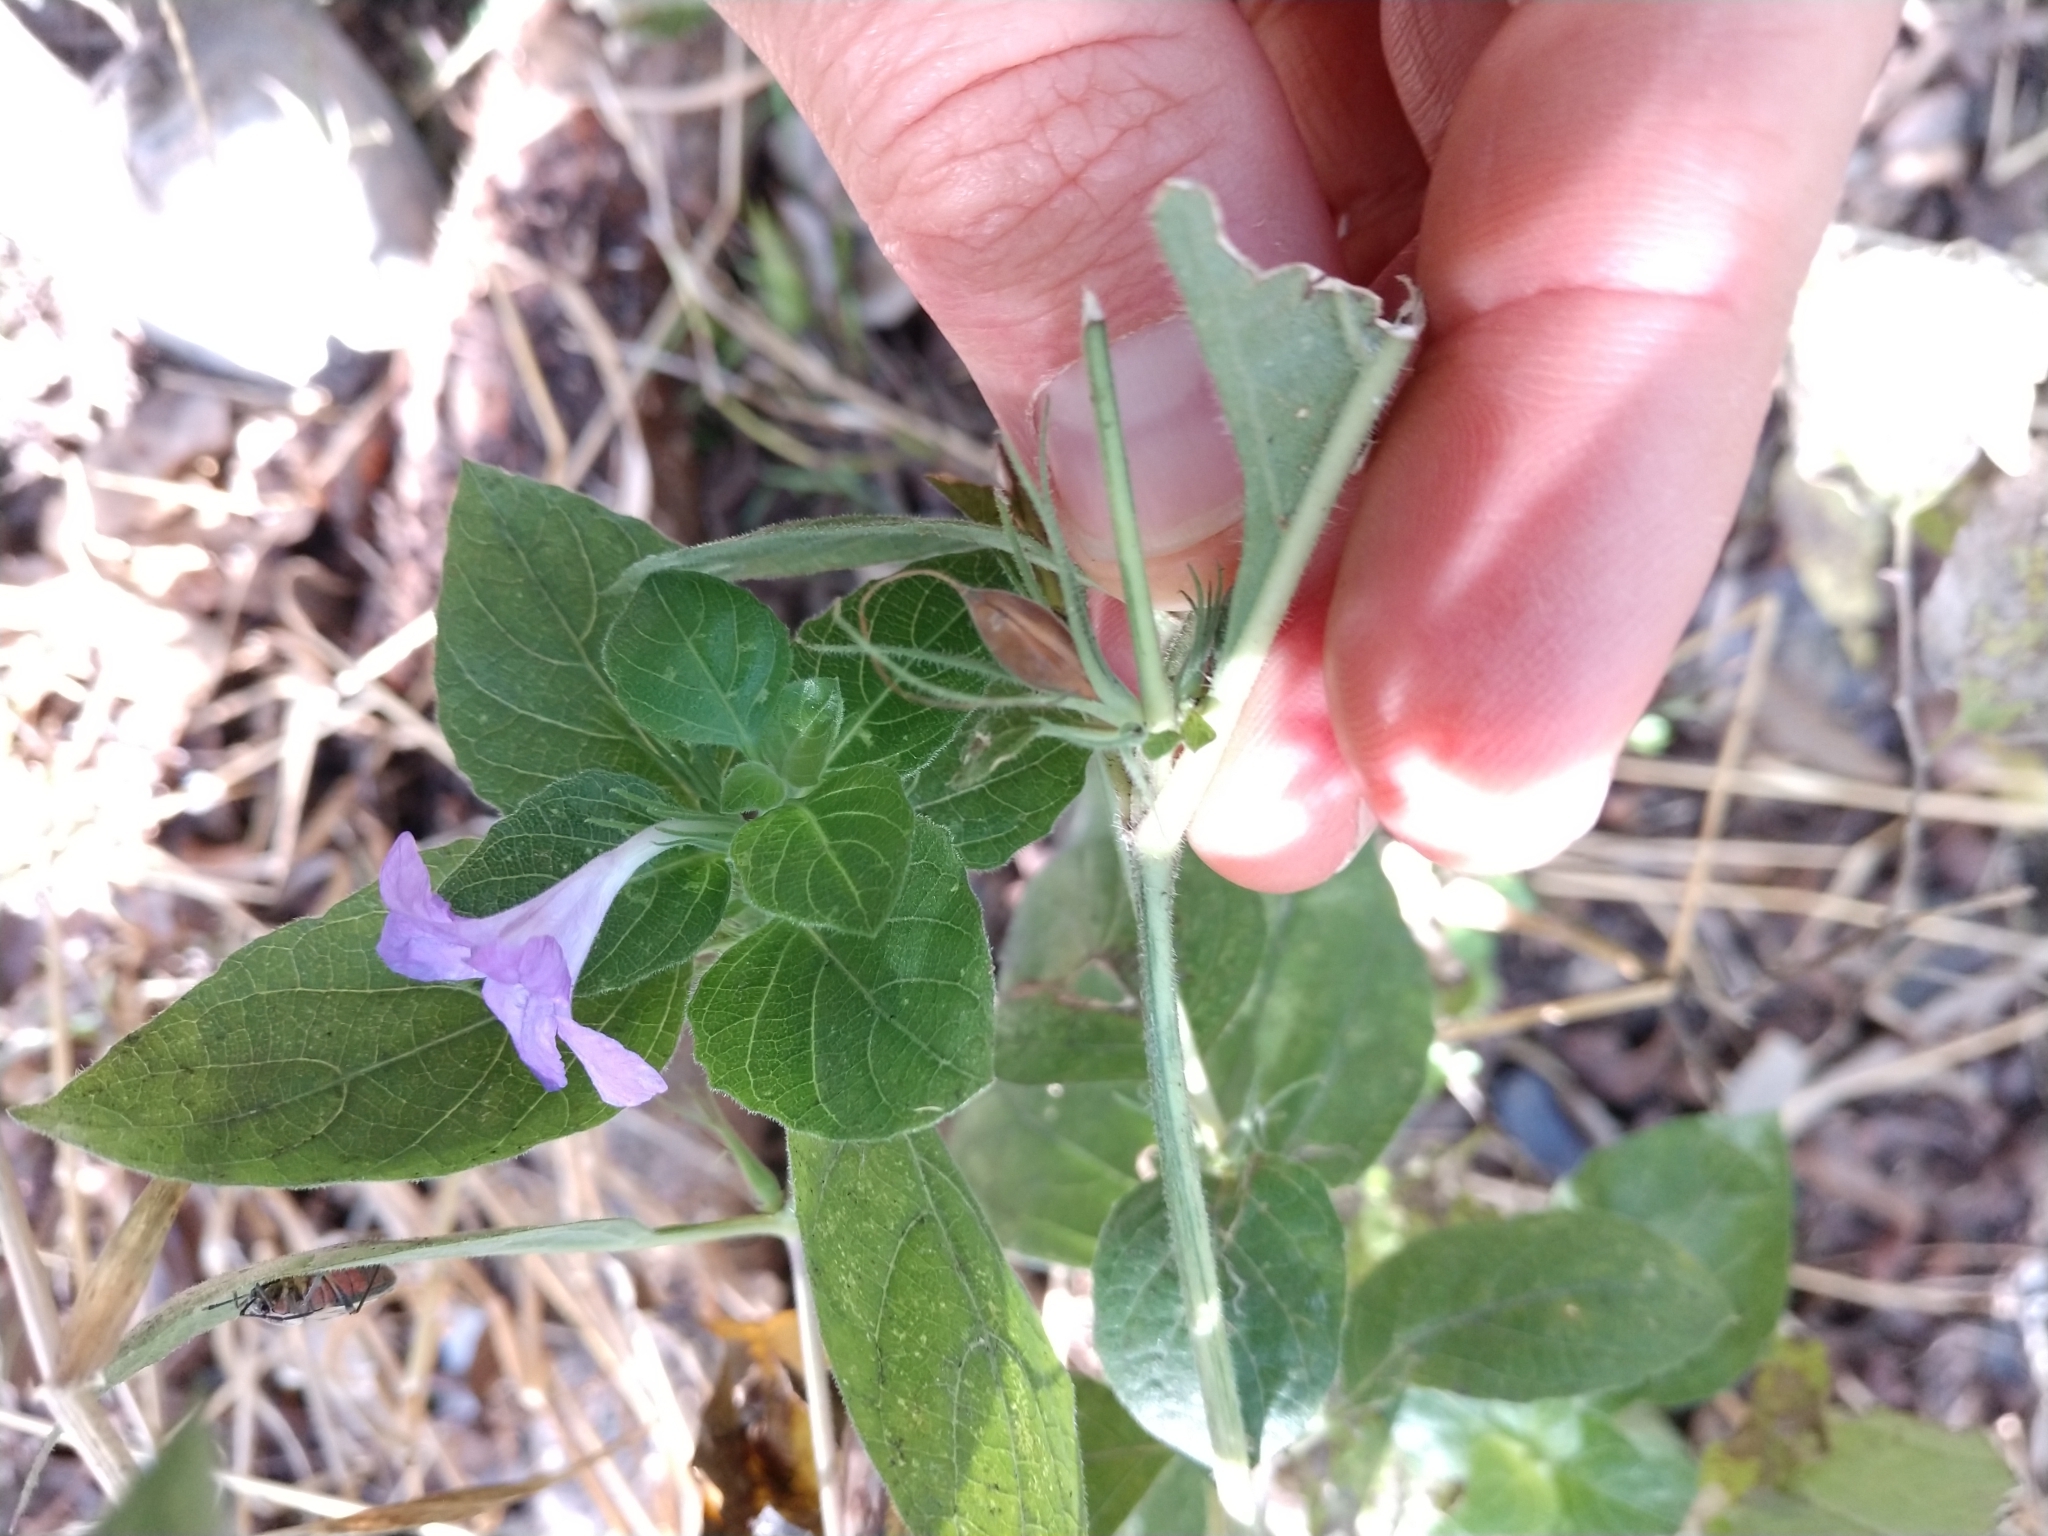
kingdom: Plantae
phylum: Tracheophyta
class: Magnoliopsida
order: Lamiales
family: Acanthaceae
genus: Ruellia
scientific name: Ruellia drummondiana
